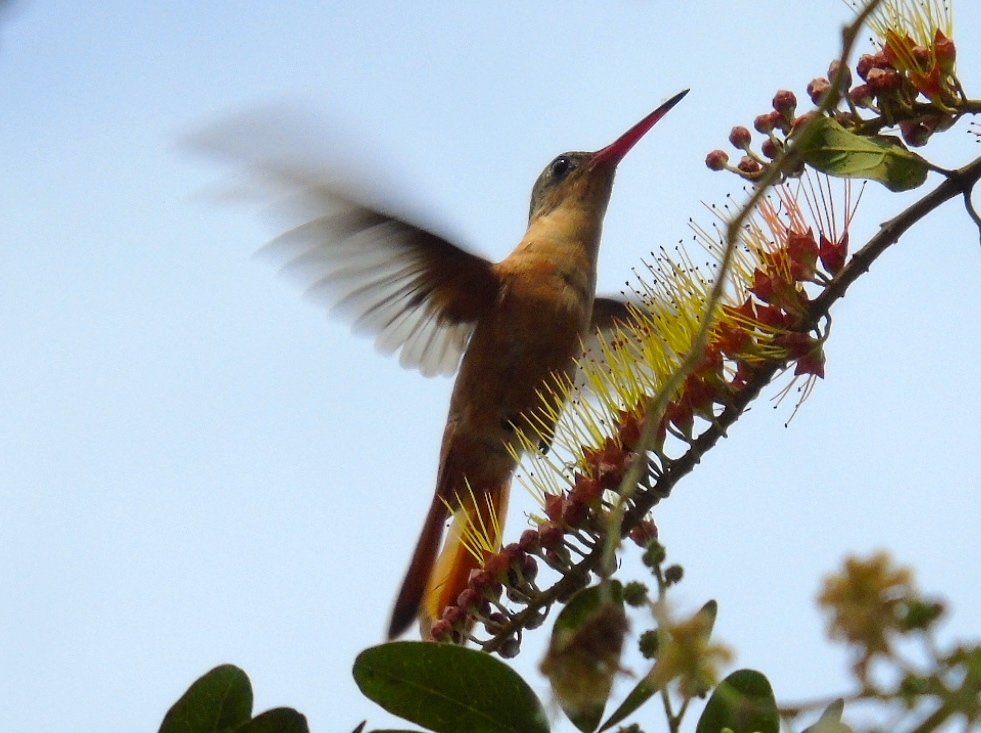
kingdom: Animalia
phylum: Chordata
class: Aves
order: Apodiformes
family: Trochilidae
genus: Amazilia
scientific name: Amazilia rutila
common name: Cinnamon hummingbird
